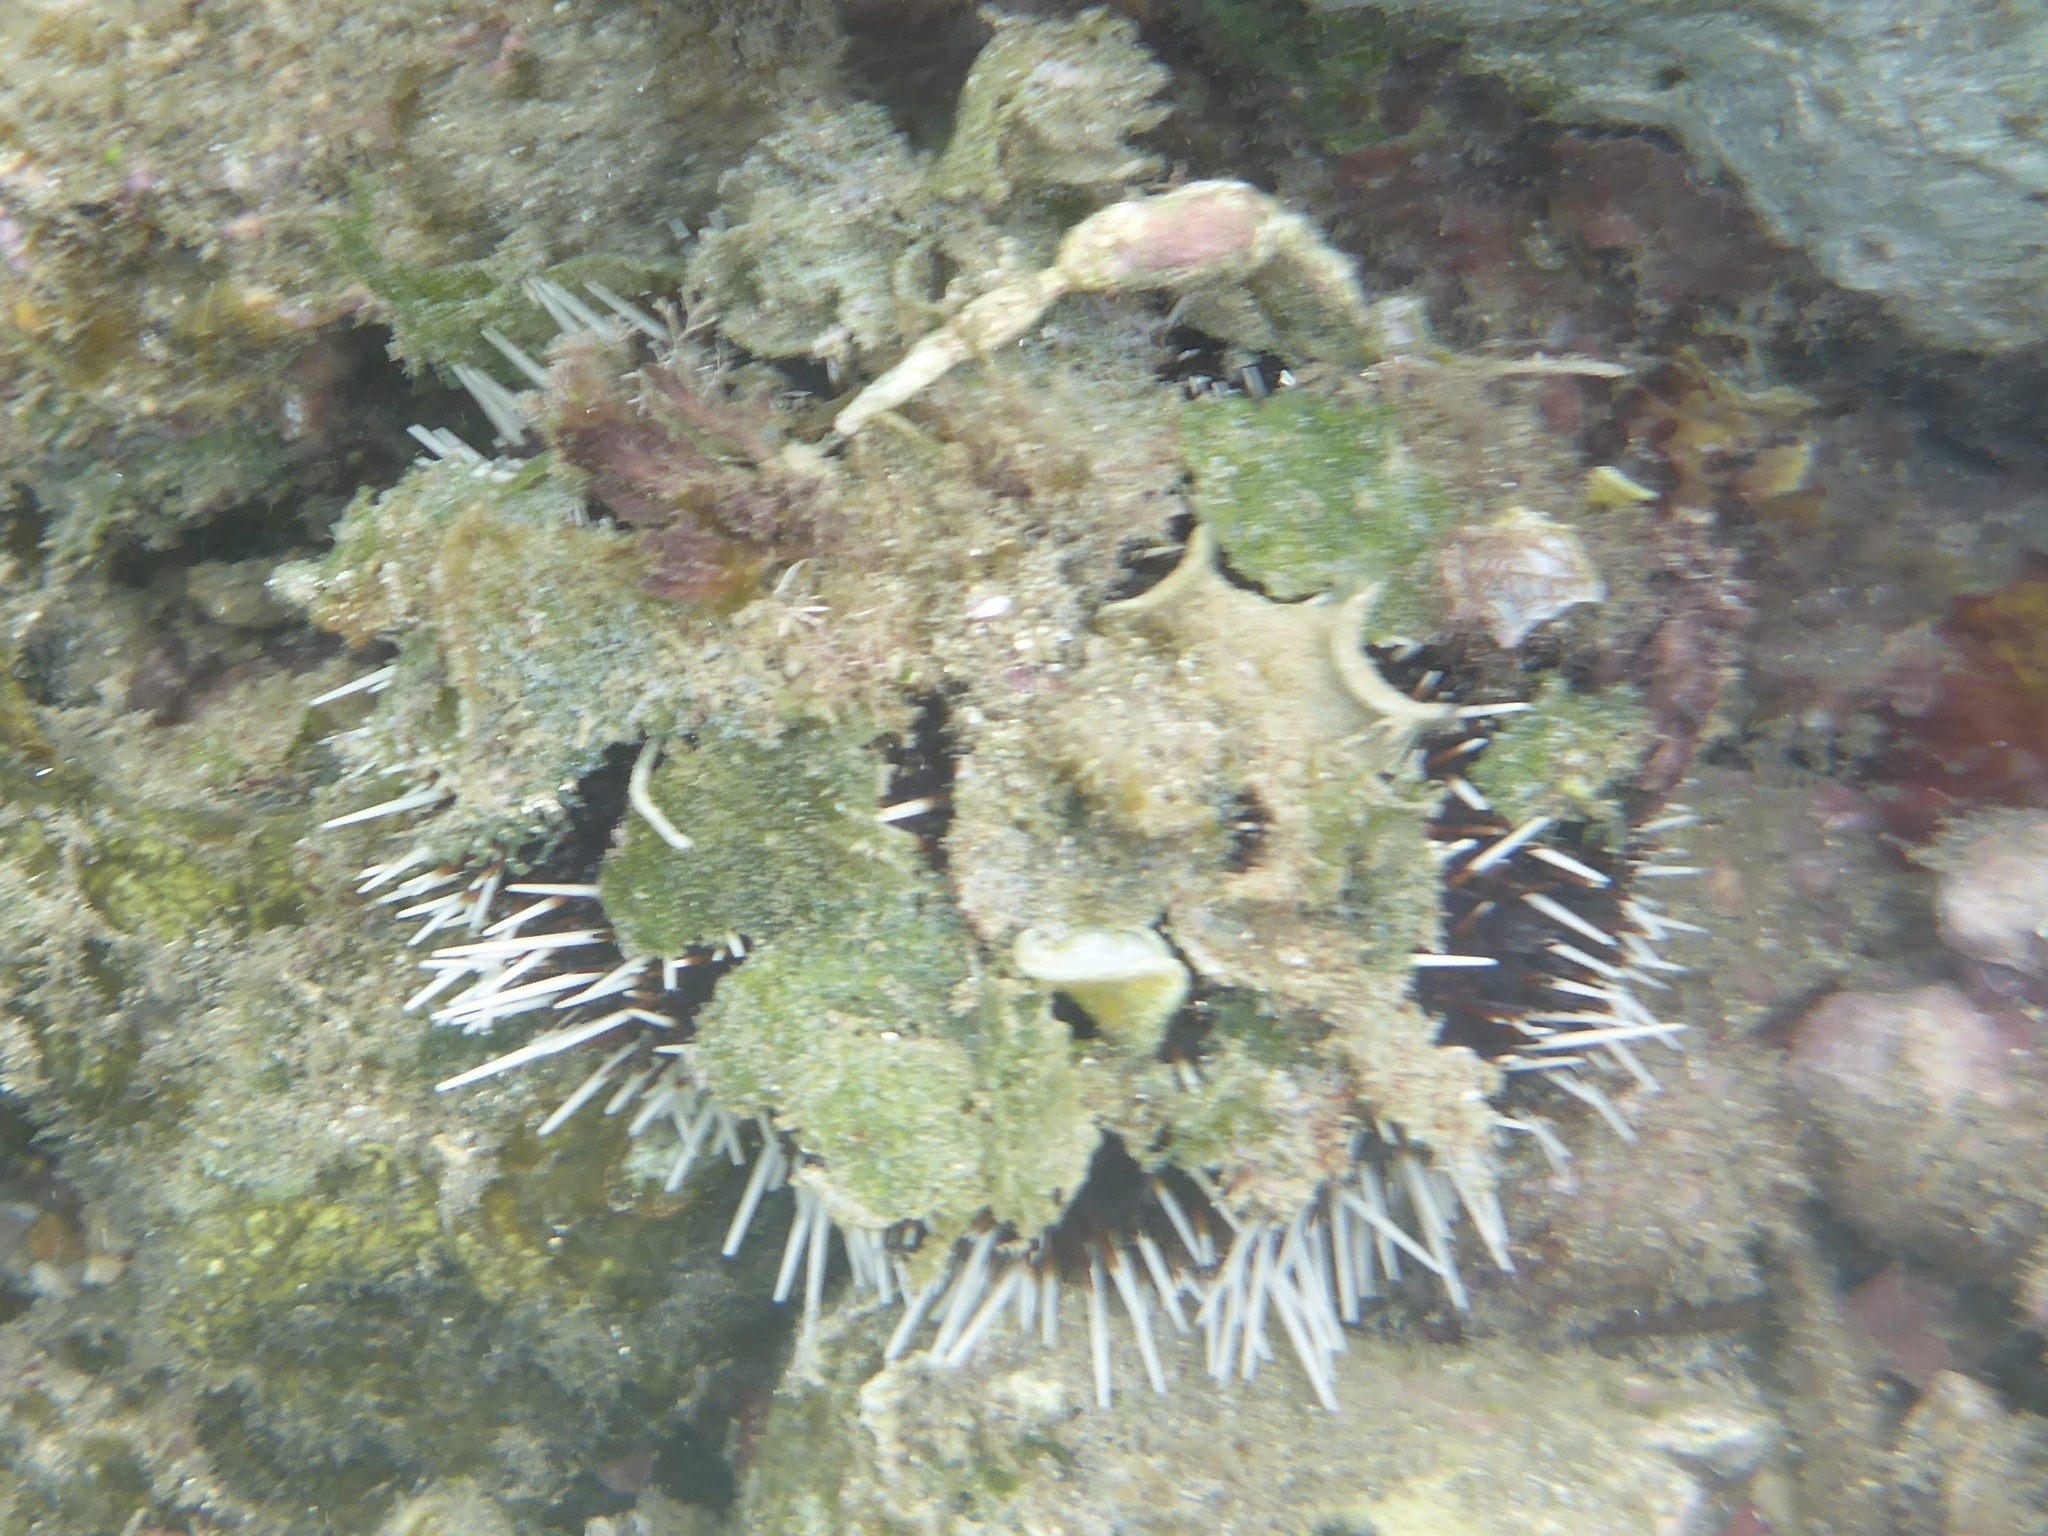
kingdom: Animalia
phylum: Echinodermata
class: Echinoidea
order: Camarodonta
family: Toxopneustidae
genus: Tripneustes
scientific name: Tripneustes gratilla
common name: Bischofsmützenseeigel
